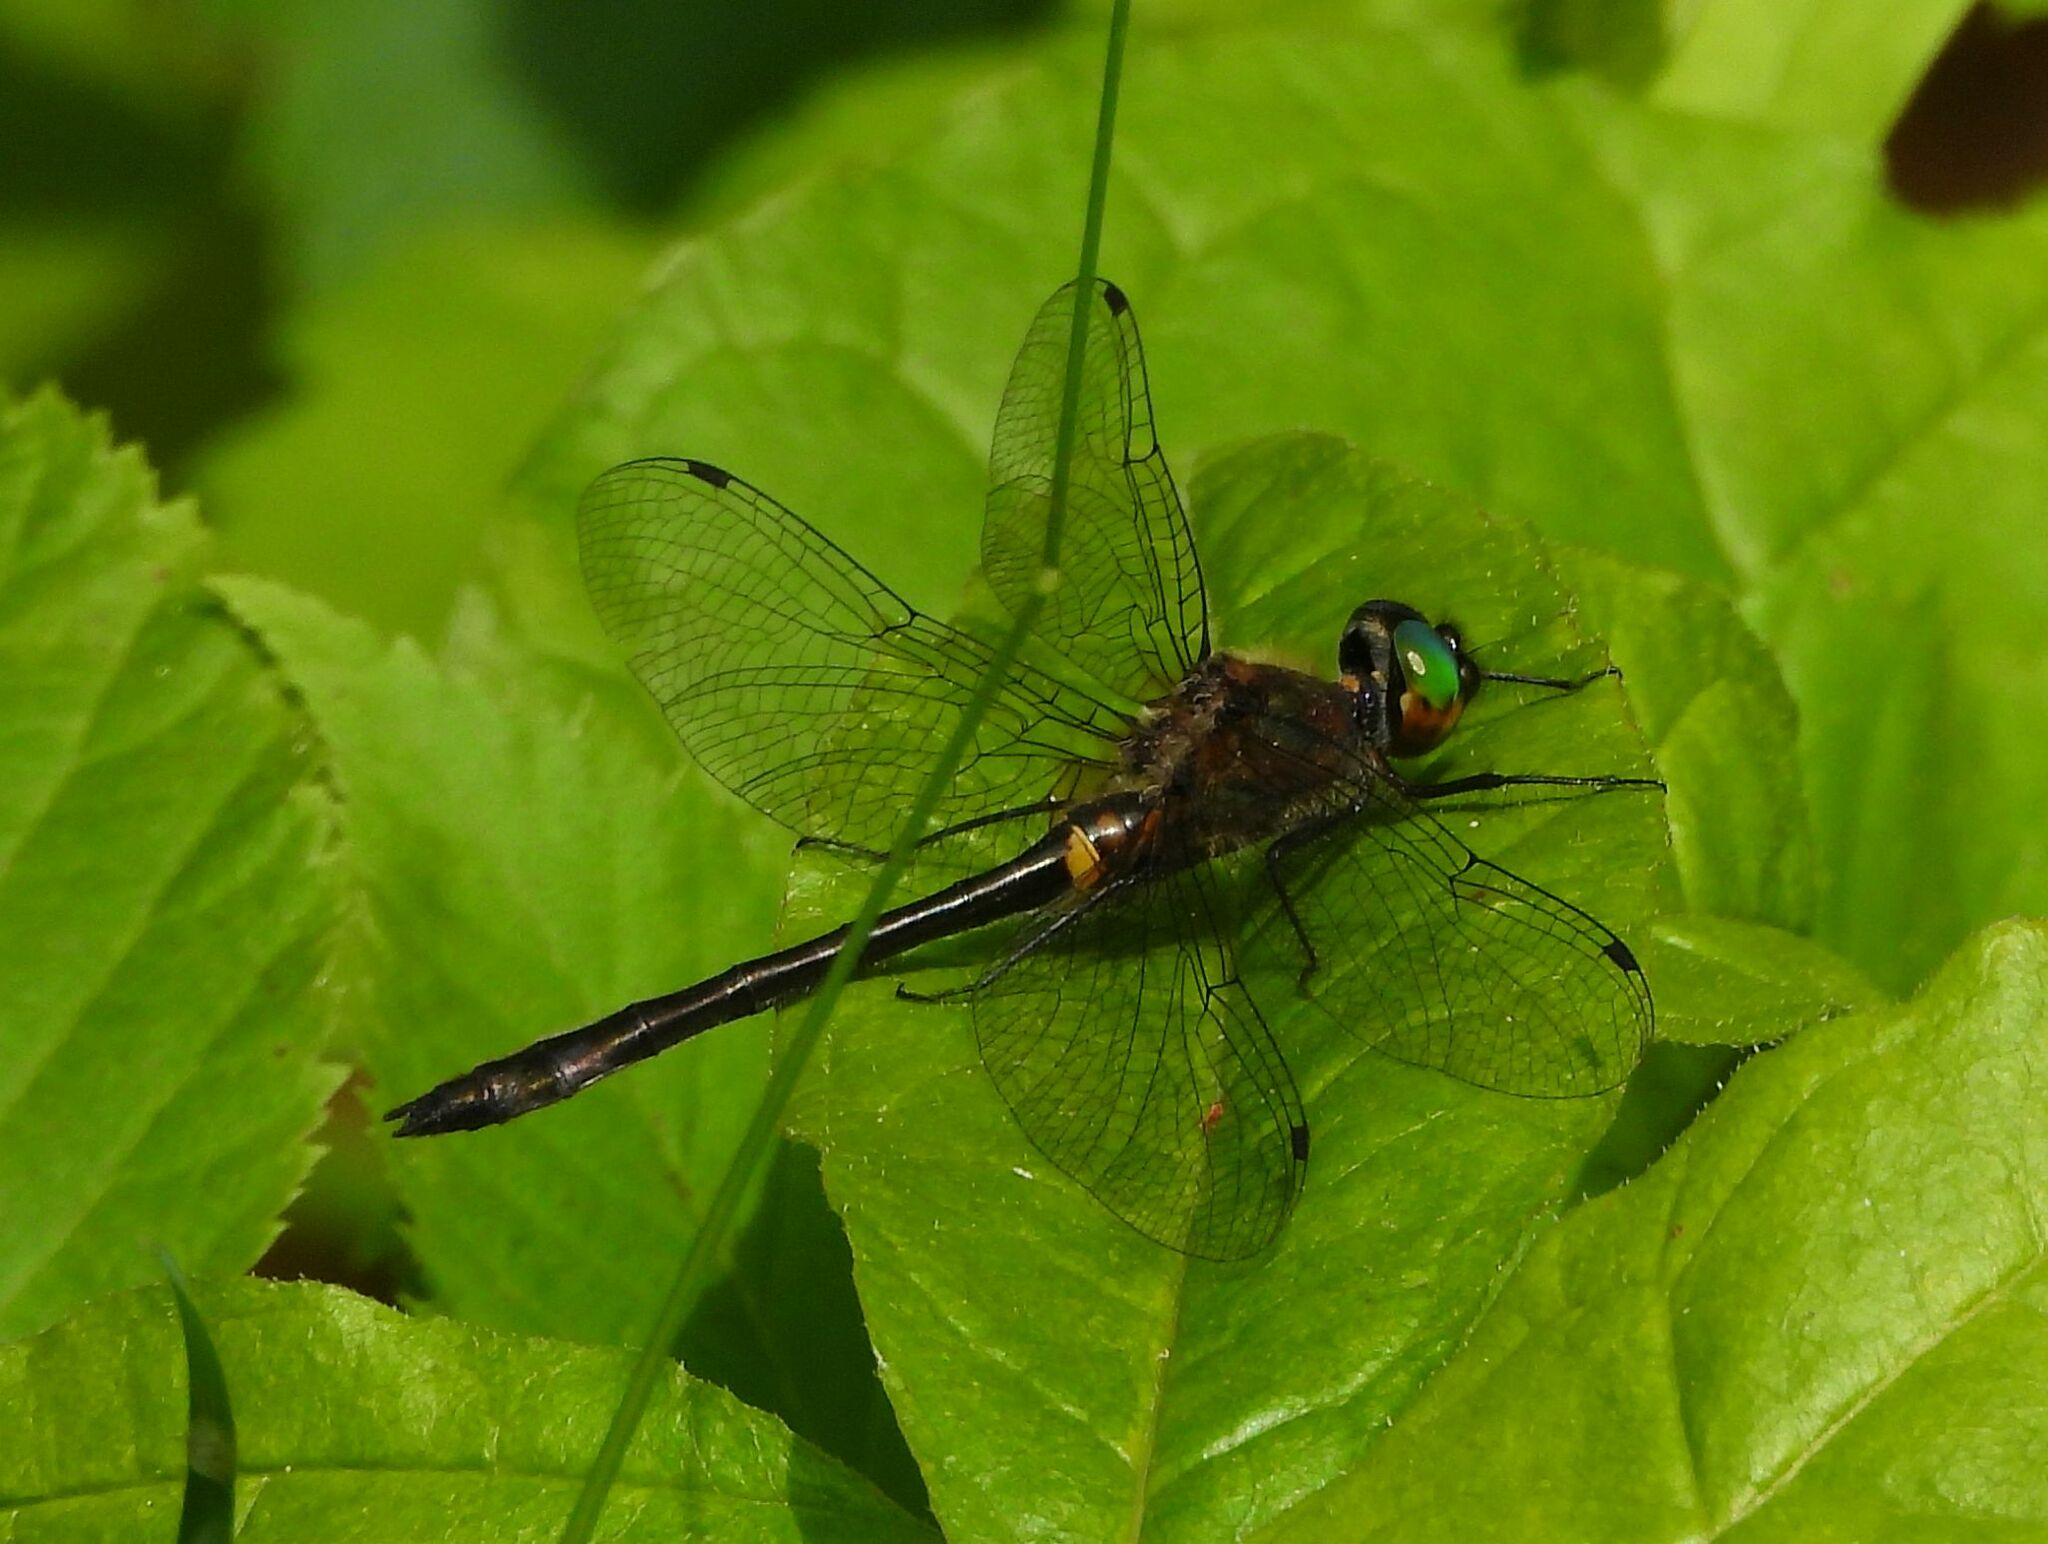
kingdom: Animalia
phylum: Arthropoda
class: Insecta
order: Odonata
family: Corduliidae
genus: Dorocordulia
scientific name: Dorocordulia libera
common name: Racket-tailed emerald
